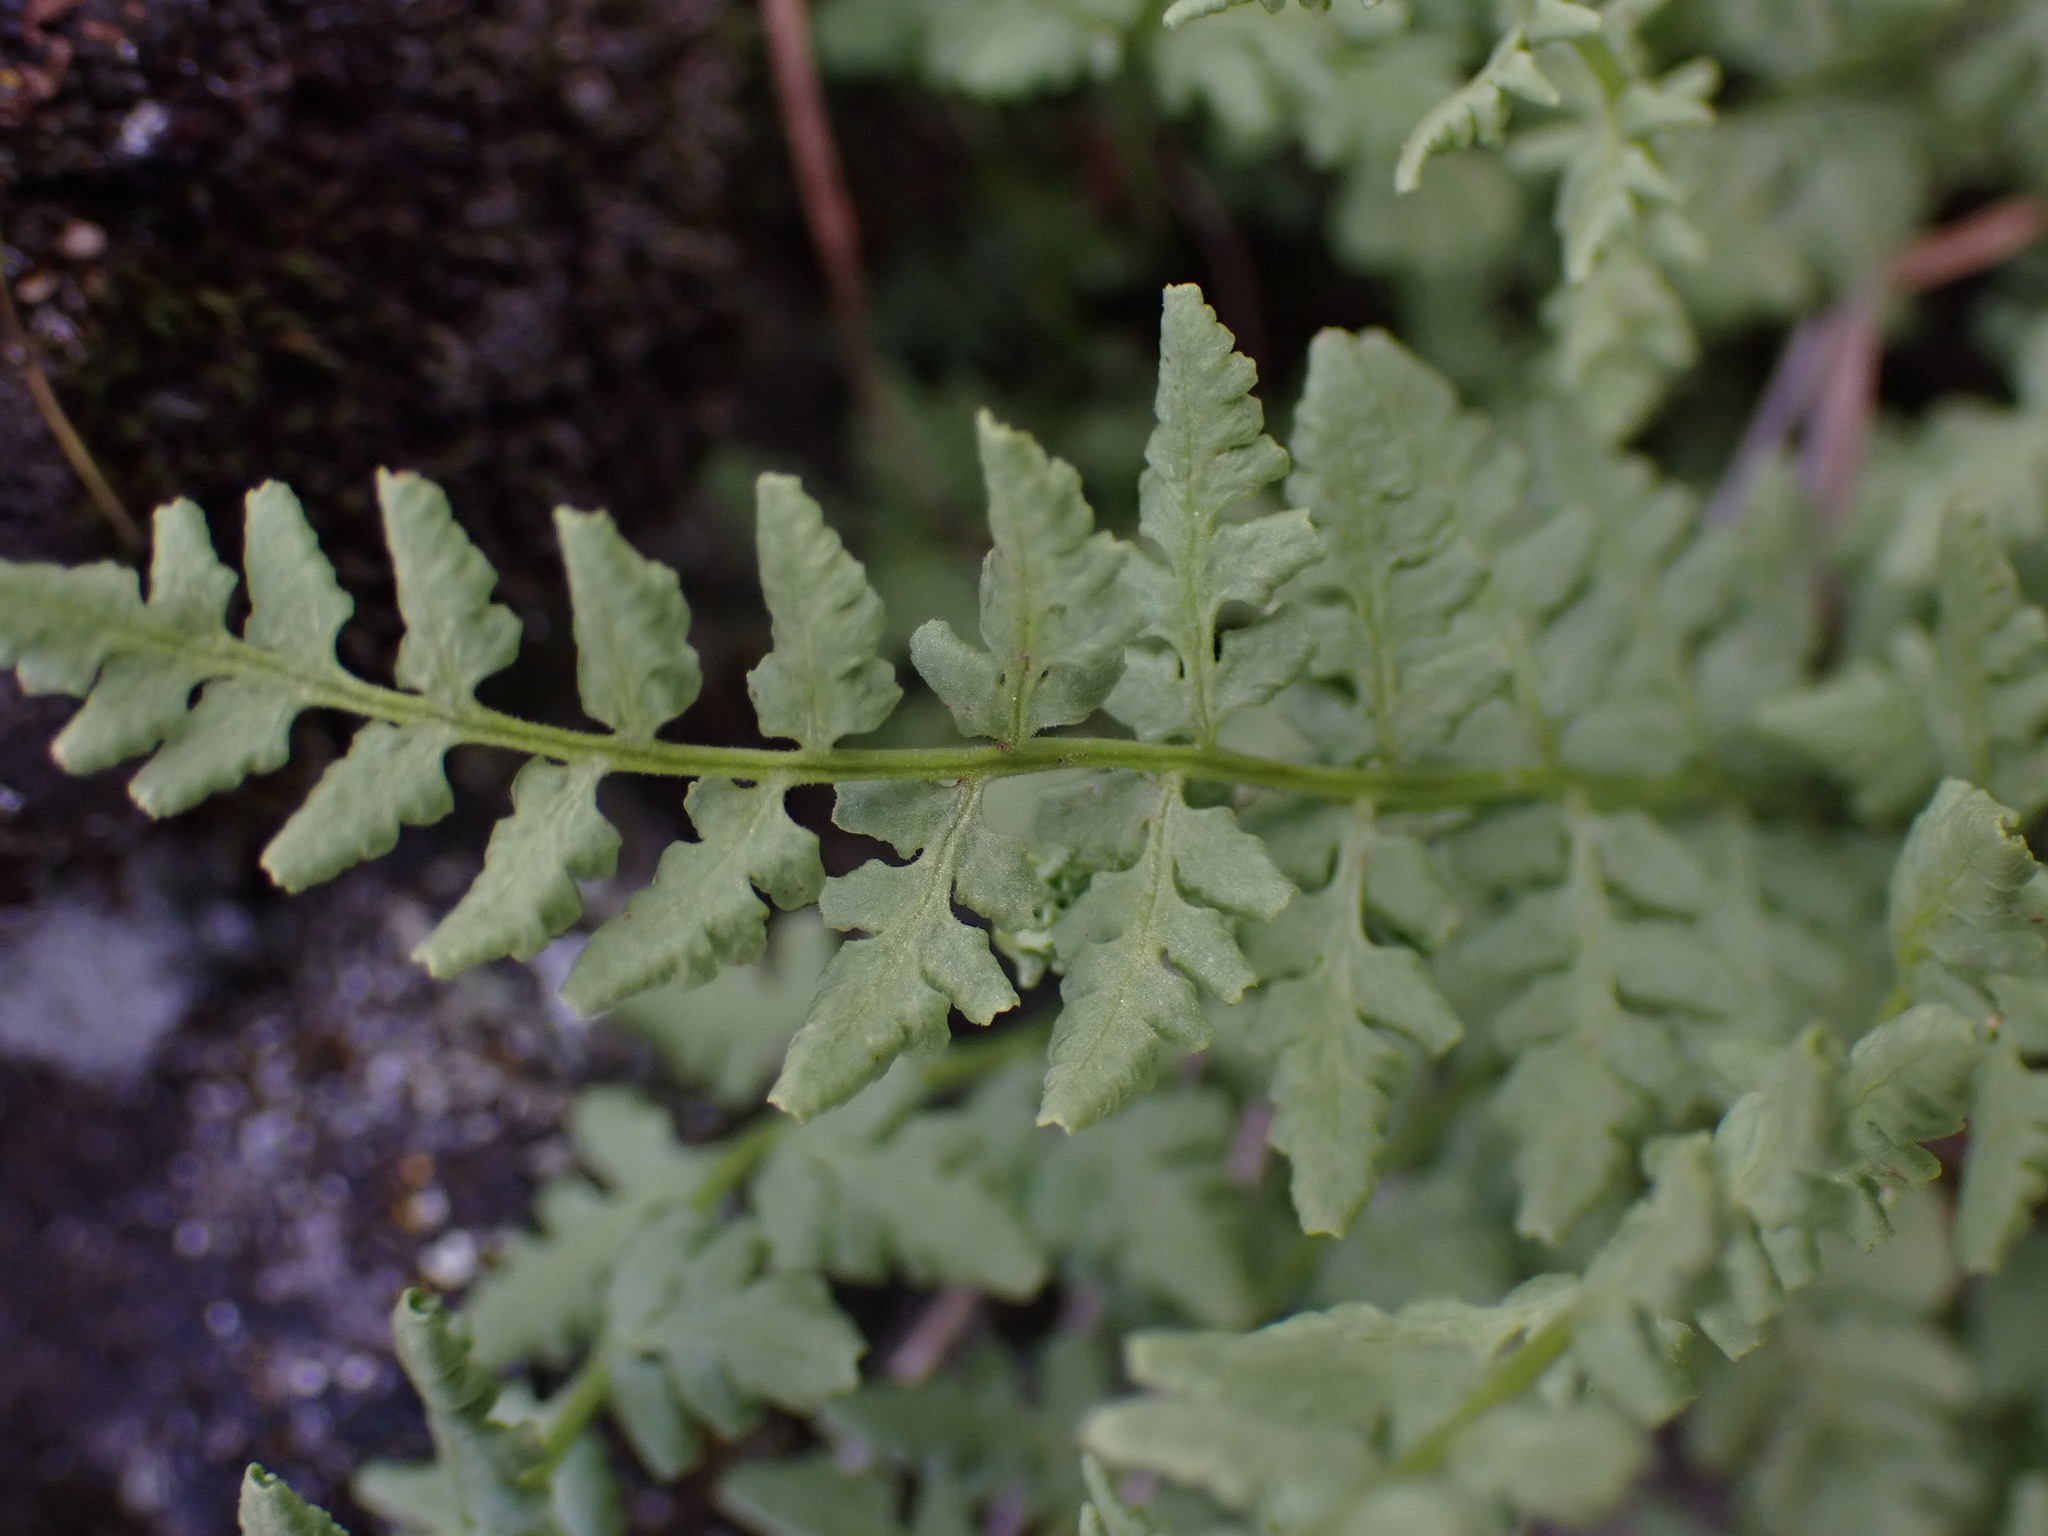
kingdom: Plantae
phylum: Tracheophyta
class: Polypodiopsida
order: Polypodiales
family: Woodsiaceae
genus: Physematium
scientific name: Physematium oreganum
